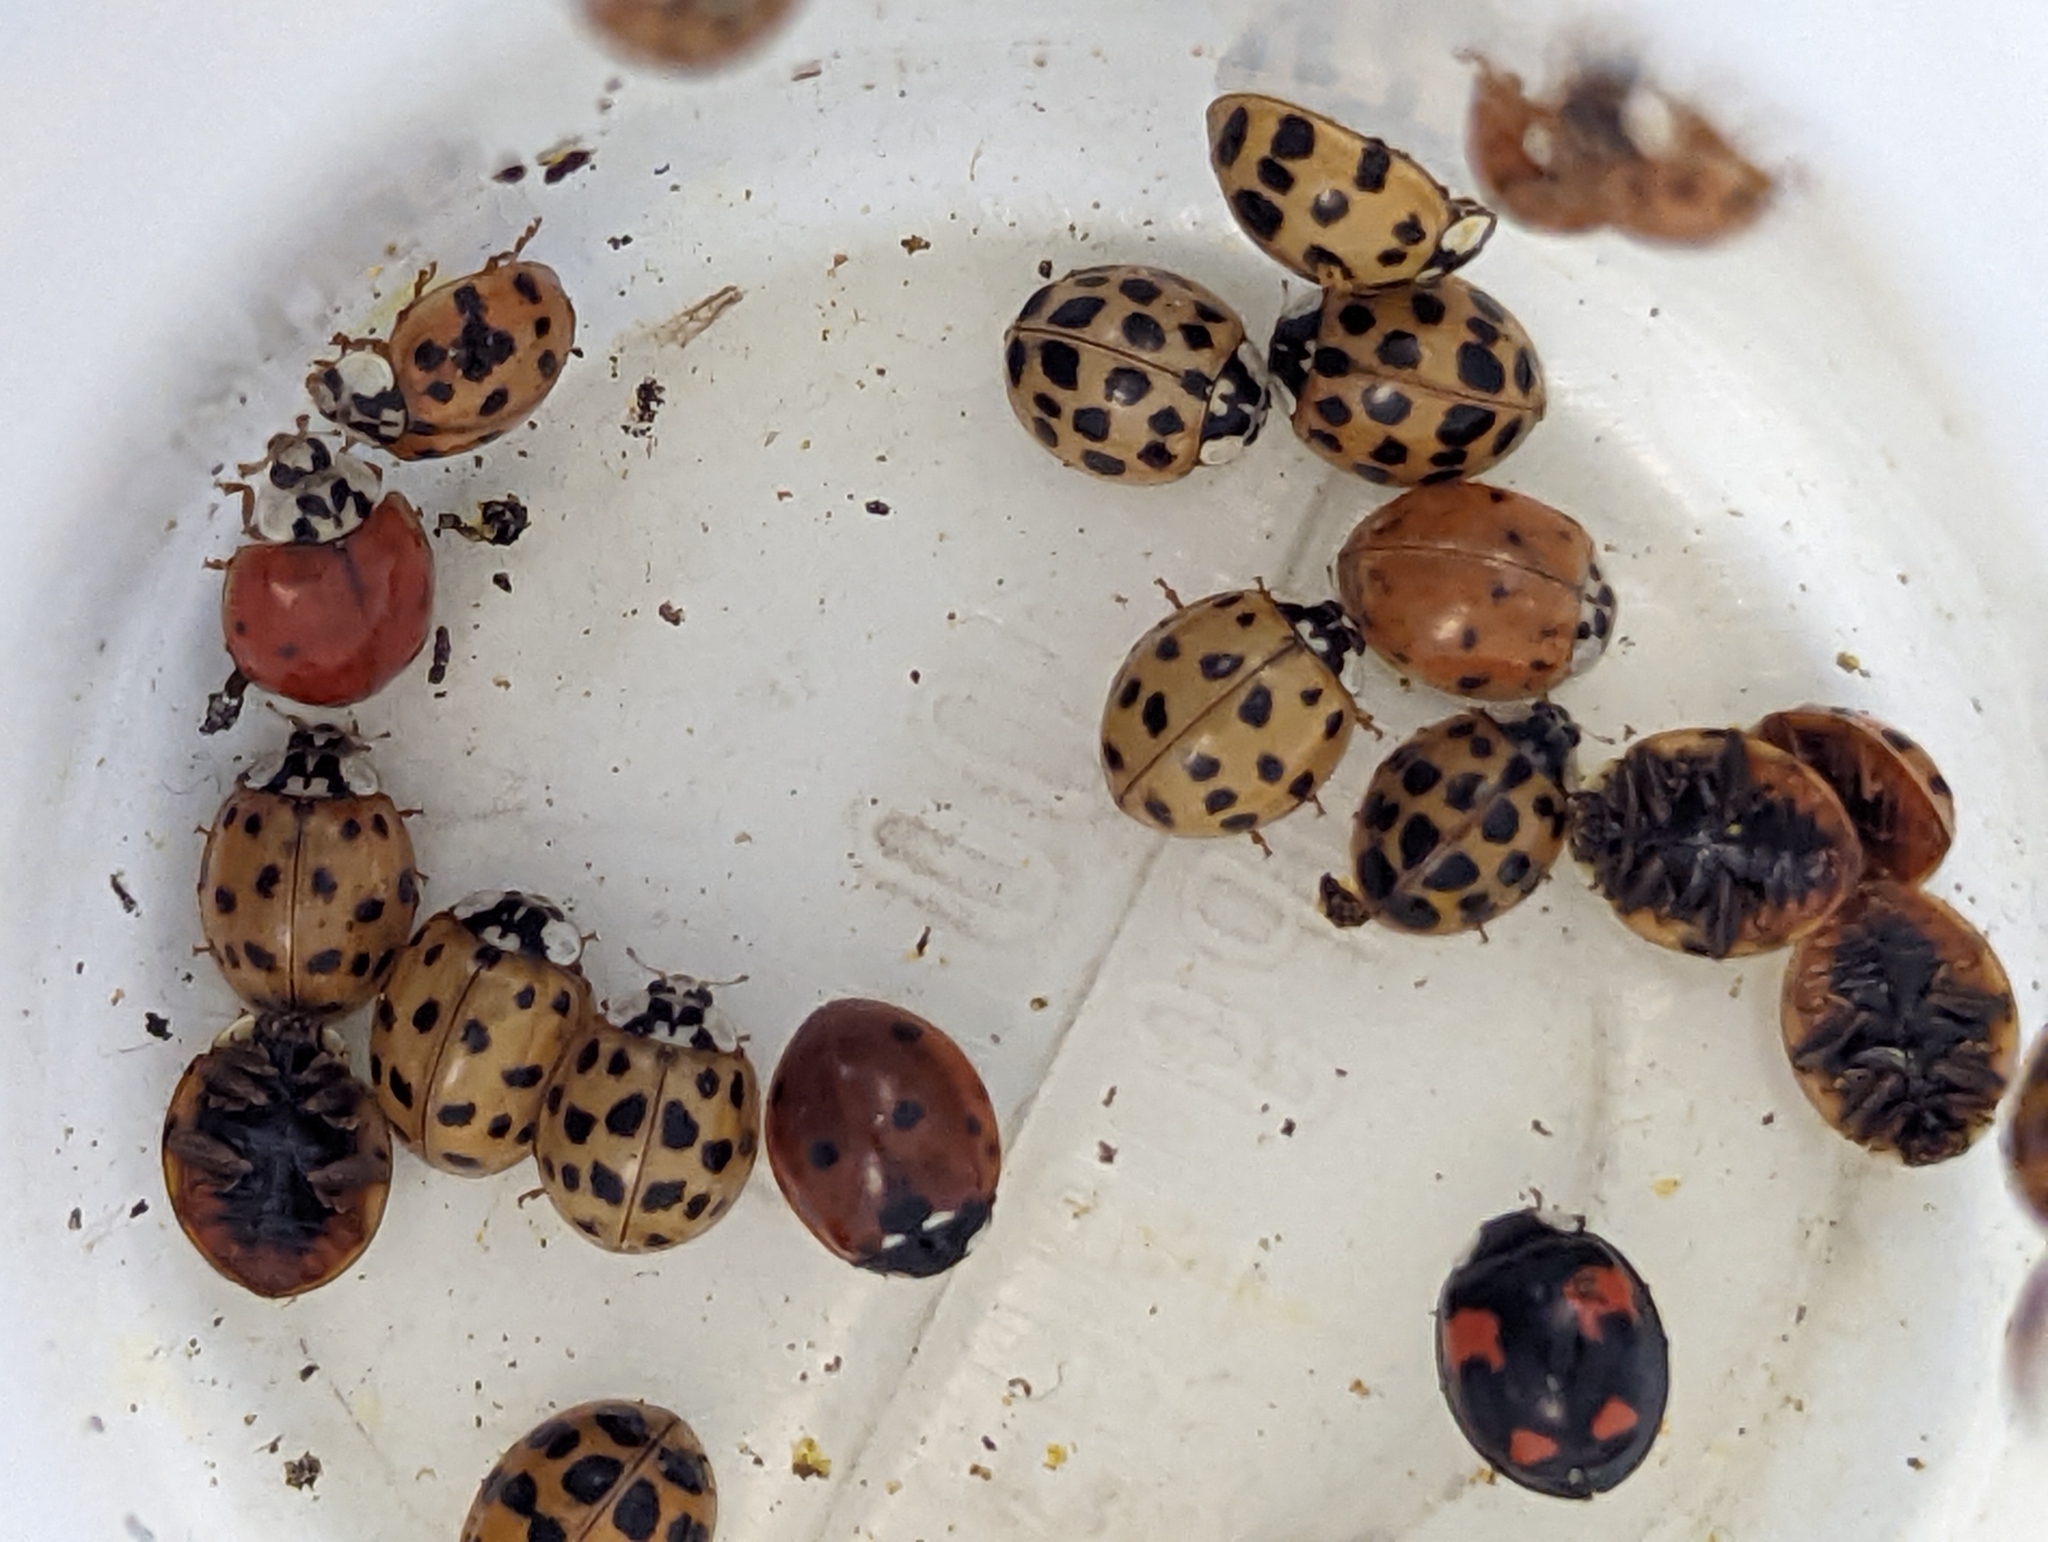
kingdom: Animalia
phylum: Arthropoda
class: Insecta
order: Coleoptera
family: Coccinellidae
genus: Harmonia
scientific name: Harmonia axyridis
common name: Harlequin ladybird
